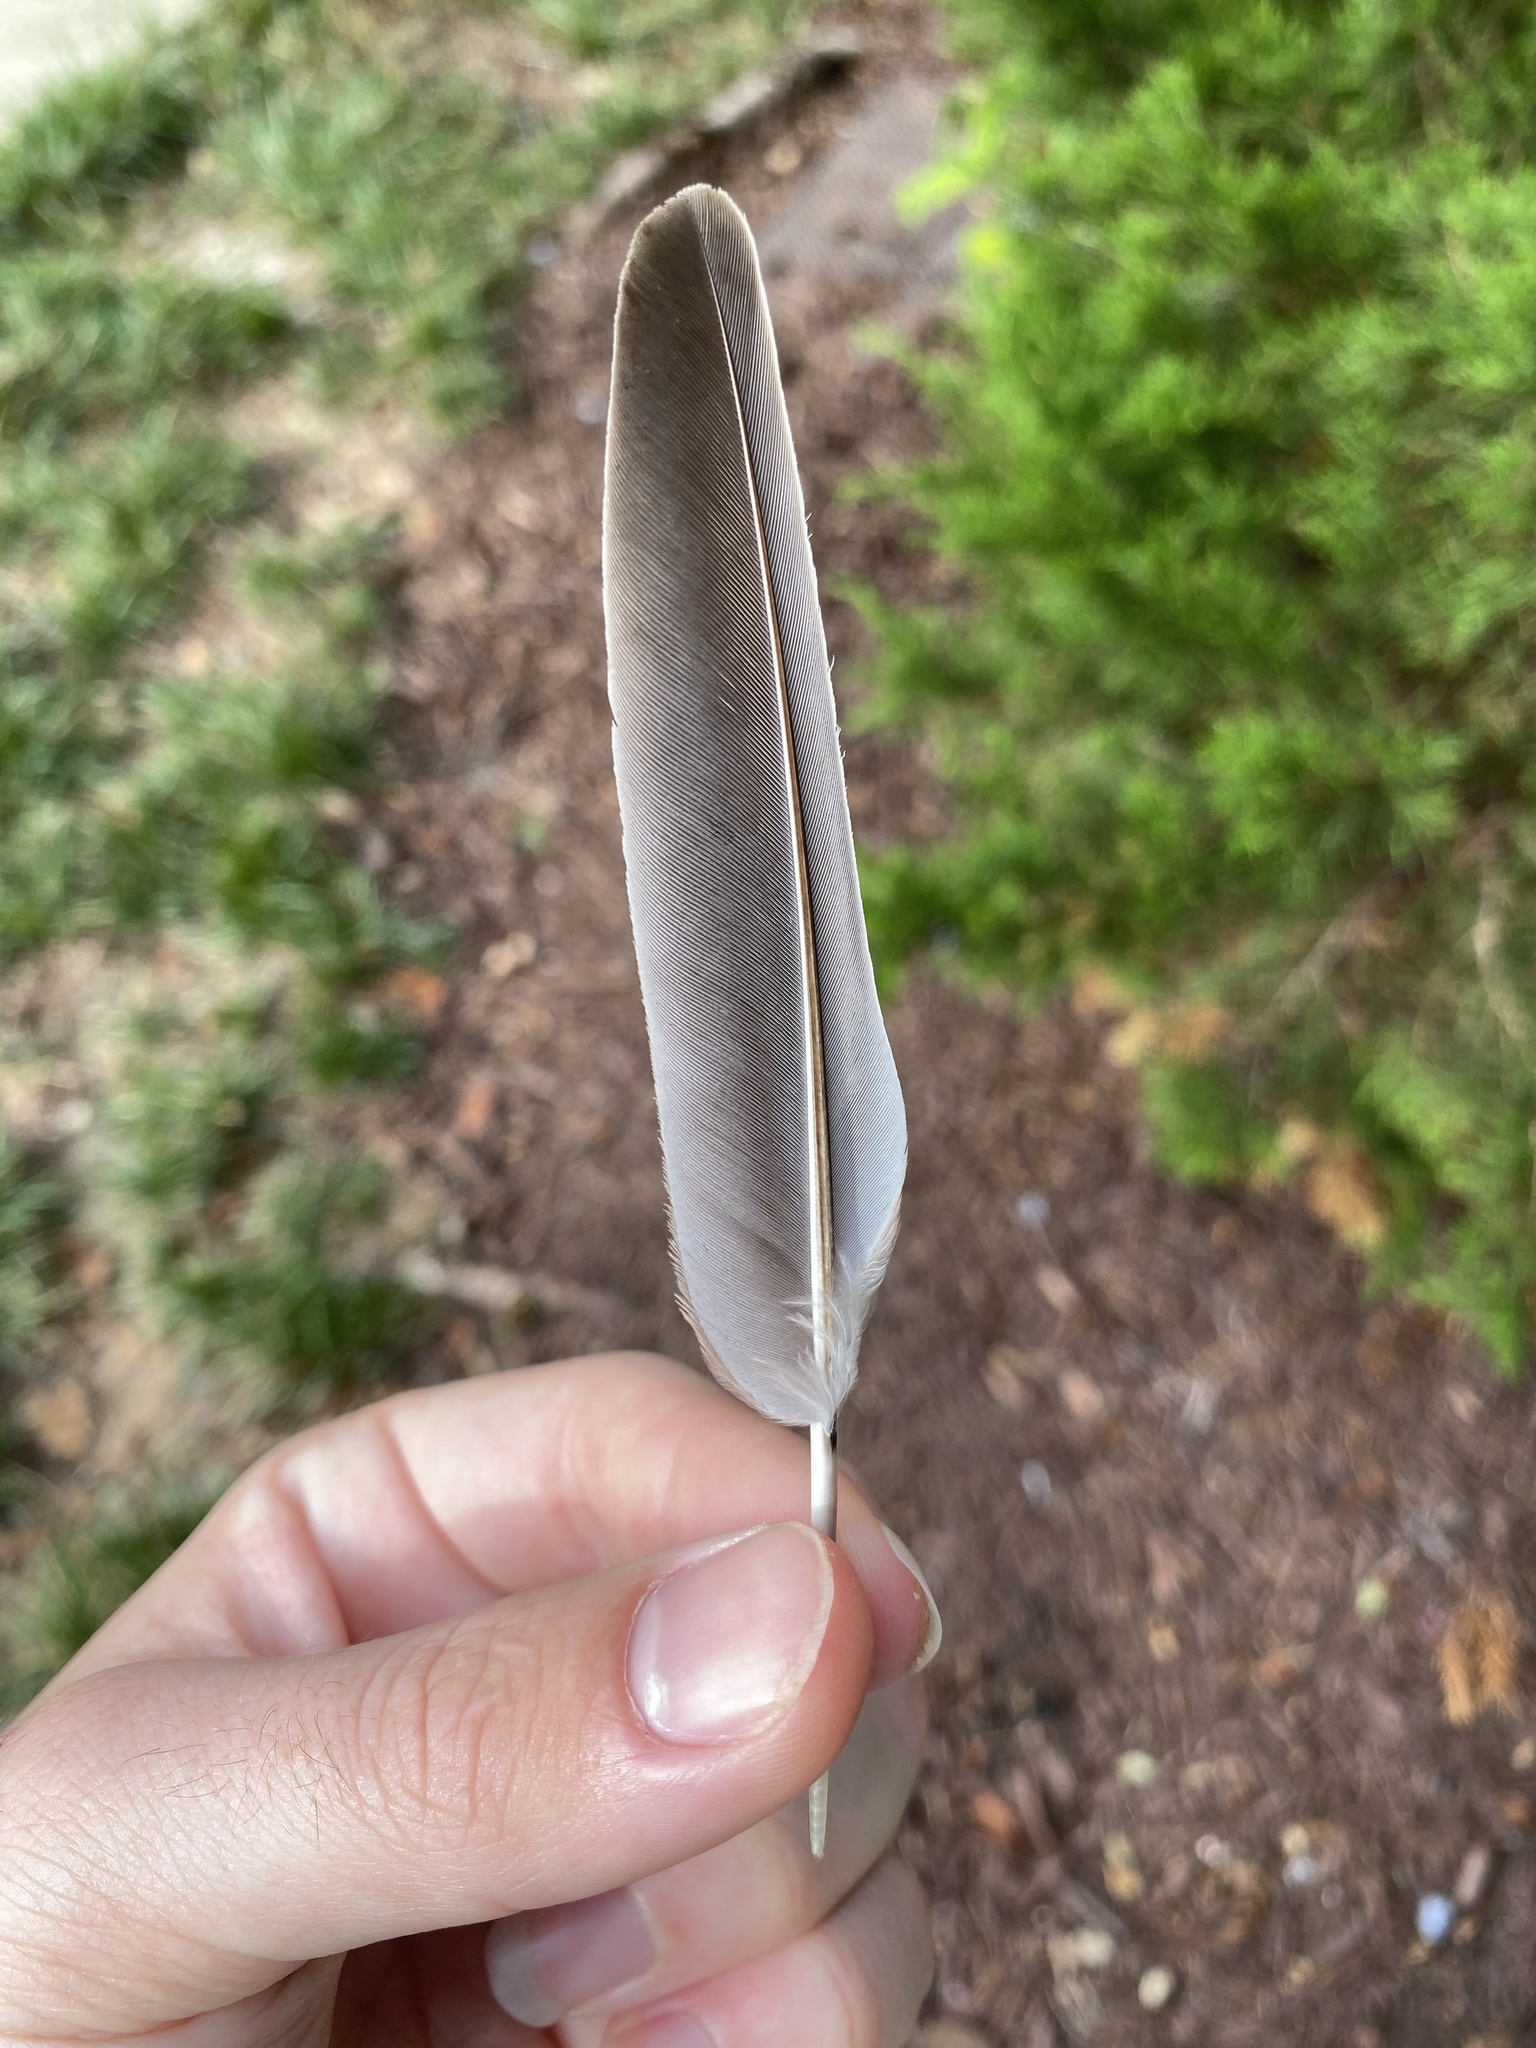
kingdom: Animalia
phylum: Chordata
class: Aves
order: Columbiformes
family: Columbidae
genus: Zenaida
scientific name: Zenaida macroura
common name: Mourning dove
